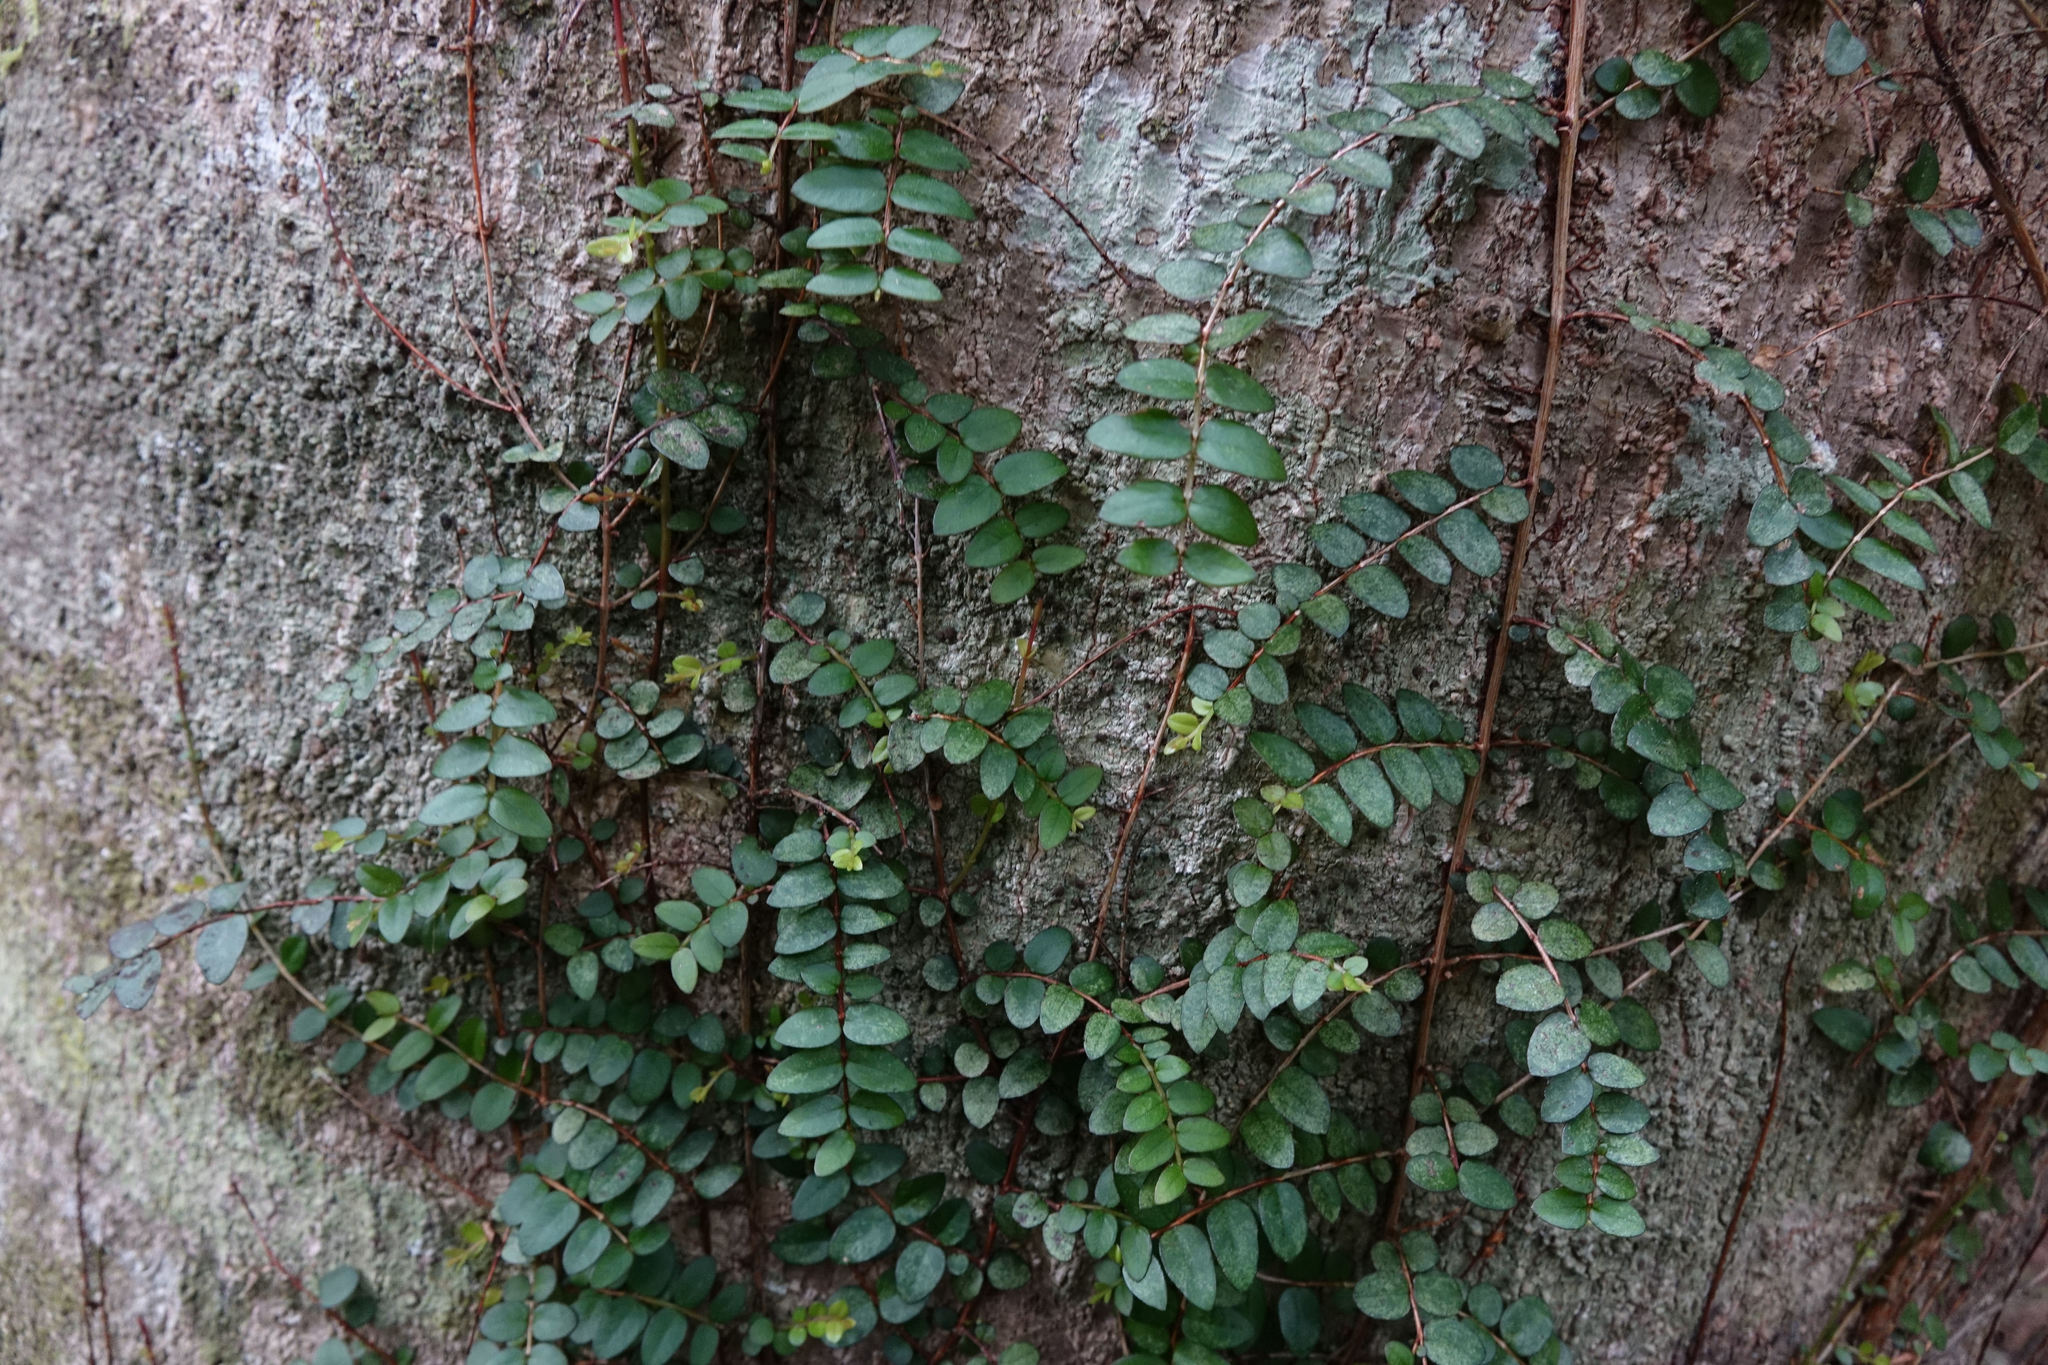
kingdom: Plantae
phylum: Tracheophyta
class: Magnoliopsida
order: Myrtales
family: Myrtaceae
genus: Metrosideros
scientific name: Metrosideros diffusa
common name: Small ratavine
